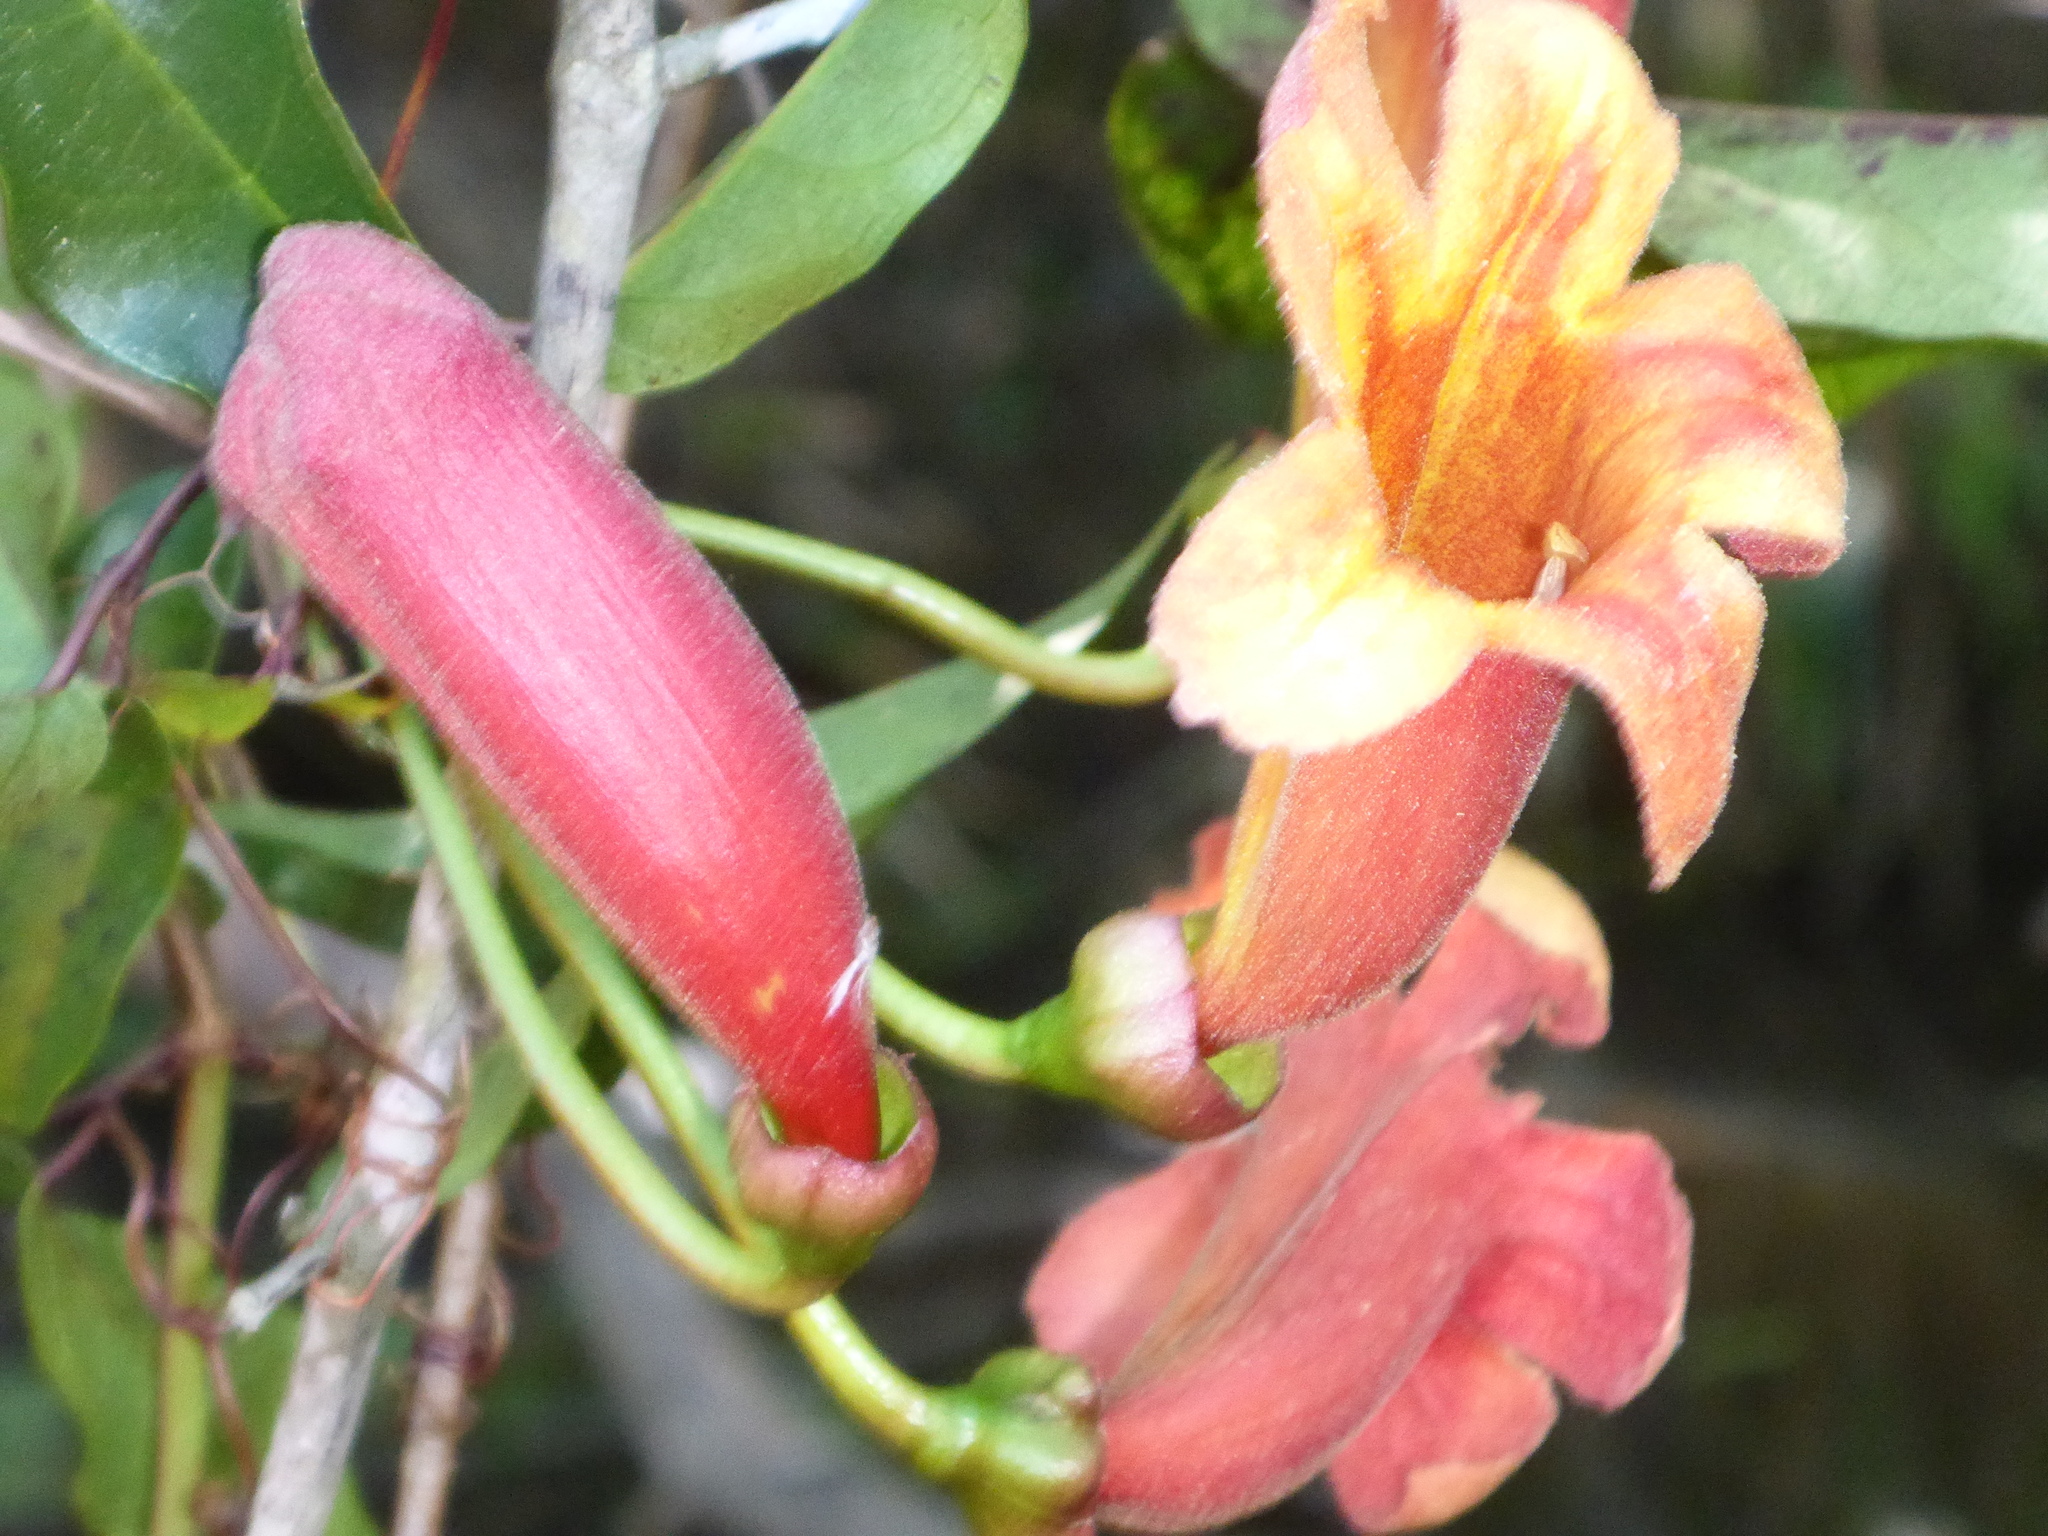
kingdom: Plantae
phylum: Tracheophyta
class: Magnoliopsida
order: Lamiales
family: Bignoniaceae
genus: Bignonia
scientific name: Bignonia capreolata
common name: Crossvine
